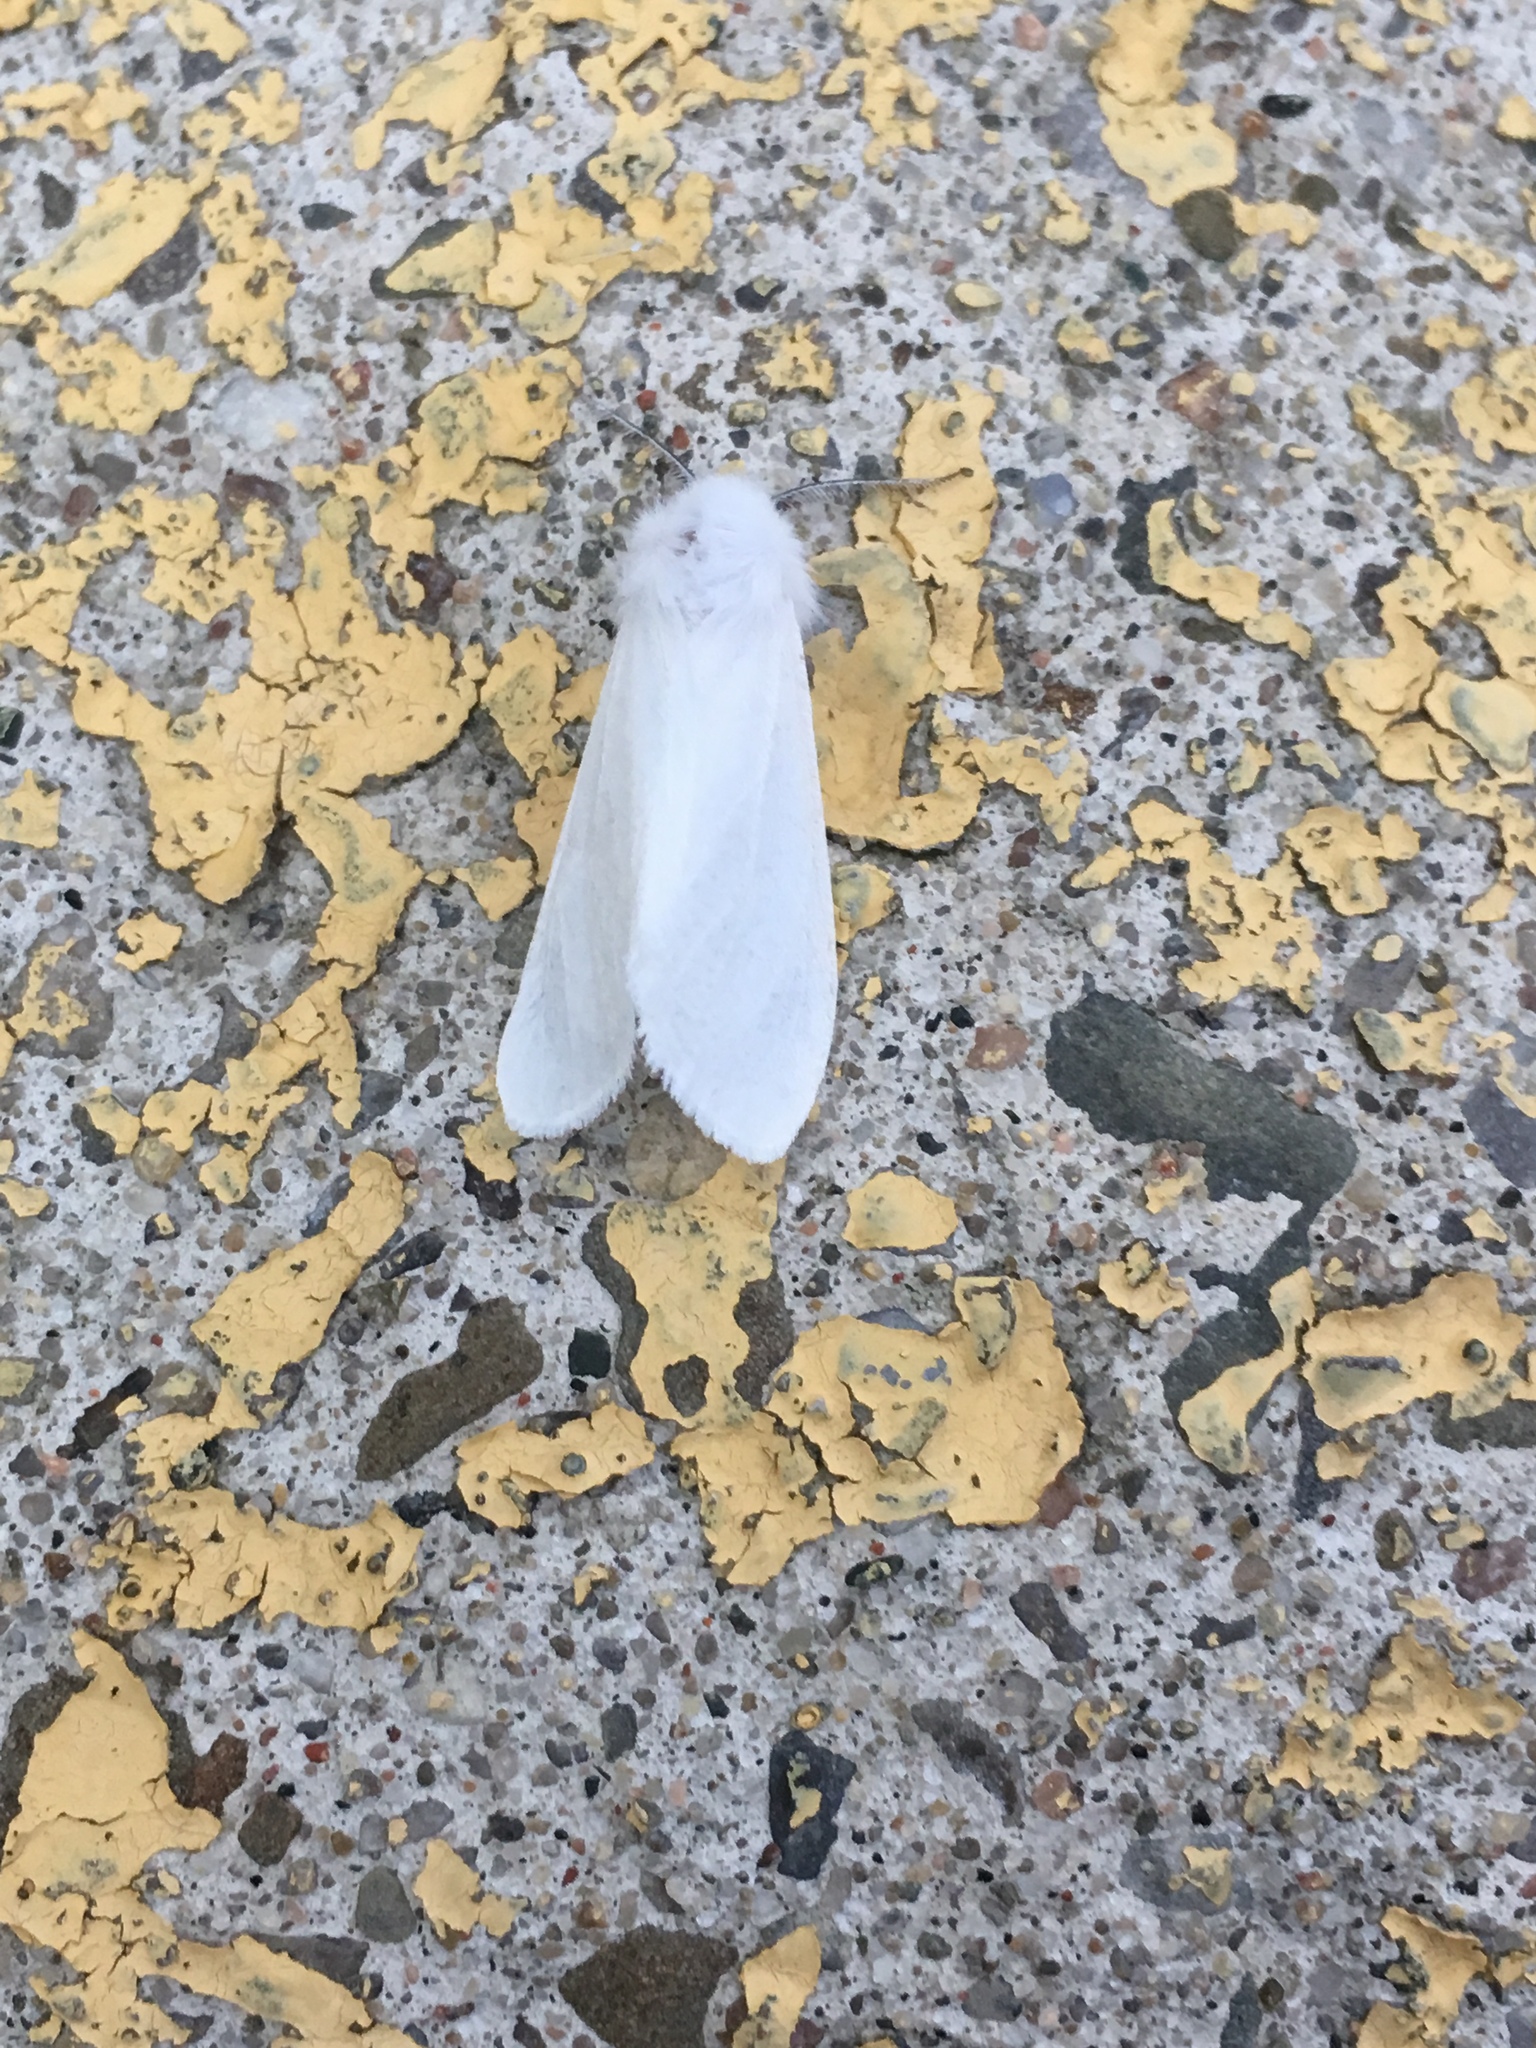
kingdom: Animalia
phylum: Arthropoda
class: Insecta
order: Lepidoptera
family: Erebidae
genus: Hyphantria
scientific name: Hyphantria cunea
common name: American white moth
